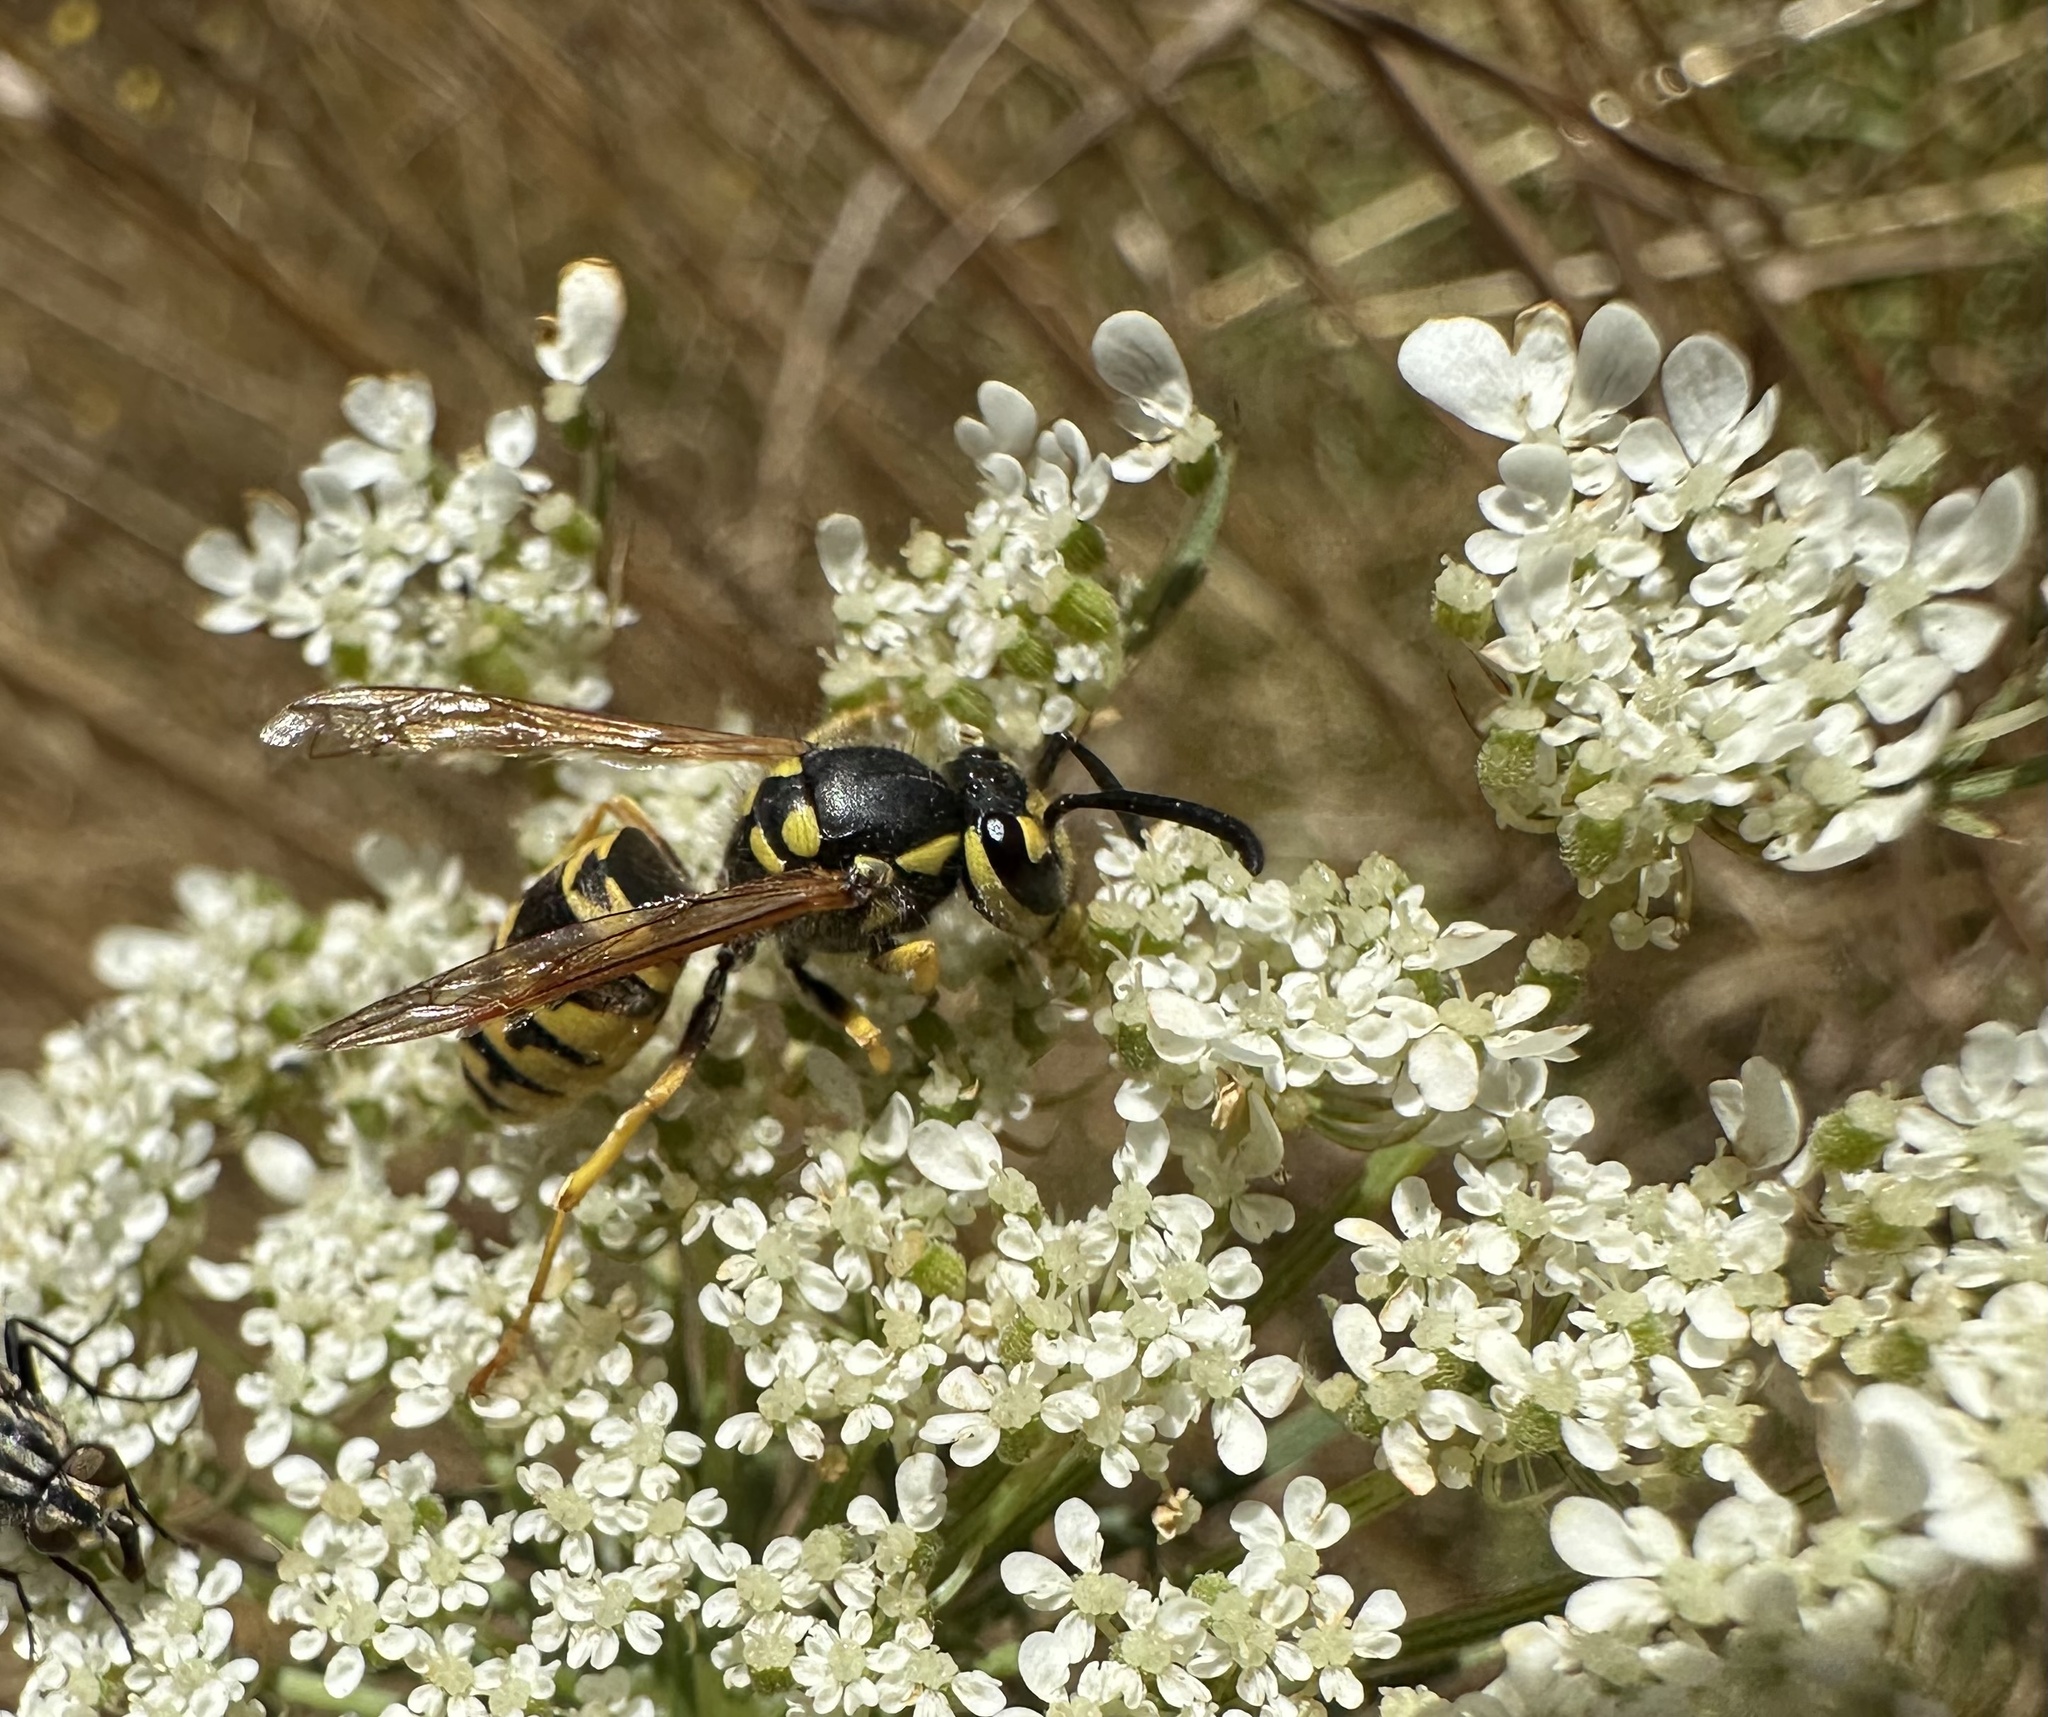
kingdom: Animalia
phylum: Arthropoda
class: Insecta
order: Hymenoptera
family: Vespidae
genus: Vespula
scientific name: Vespula germanica
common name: German wasp
